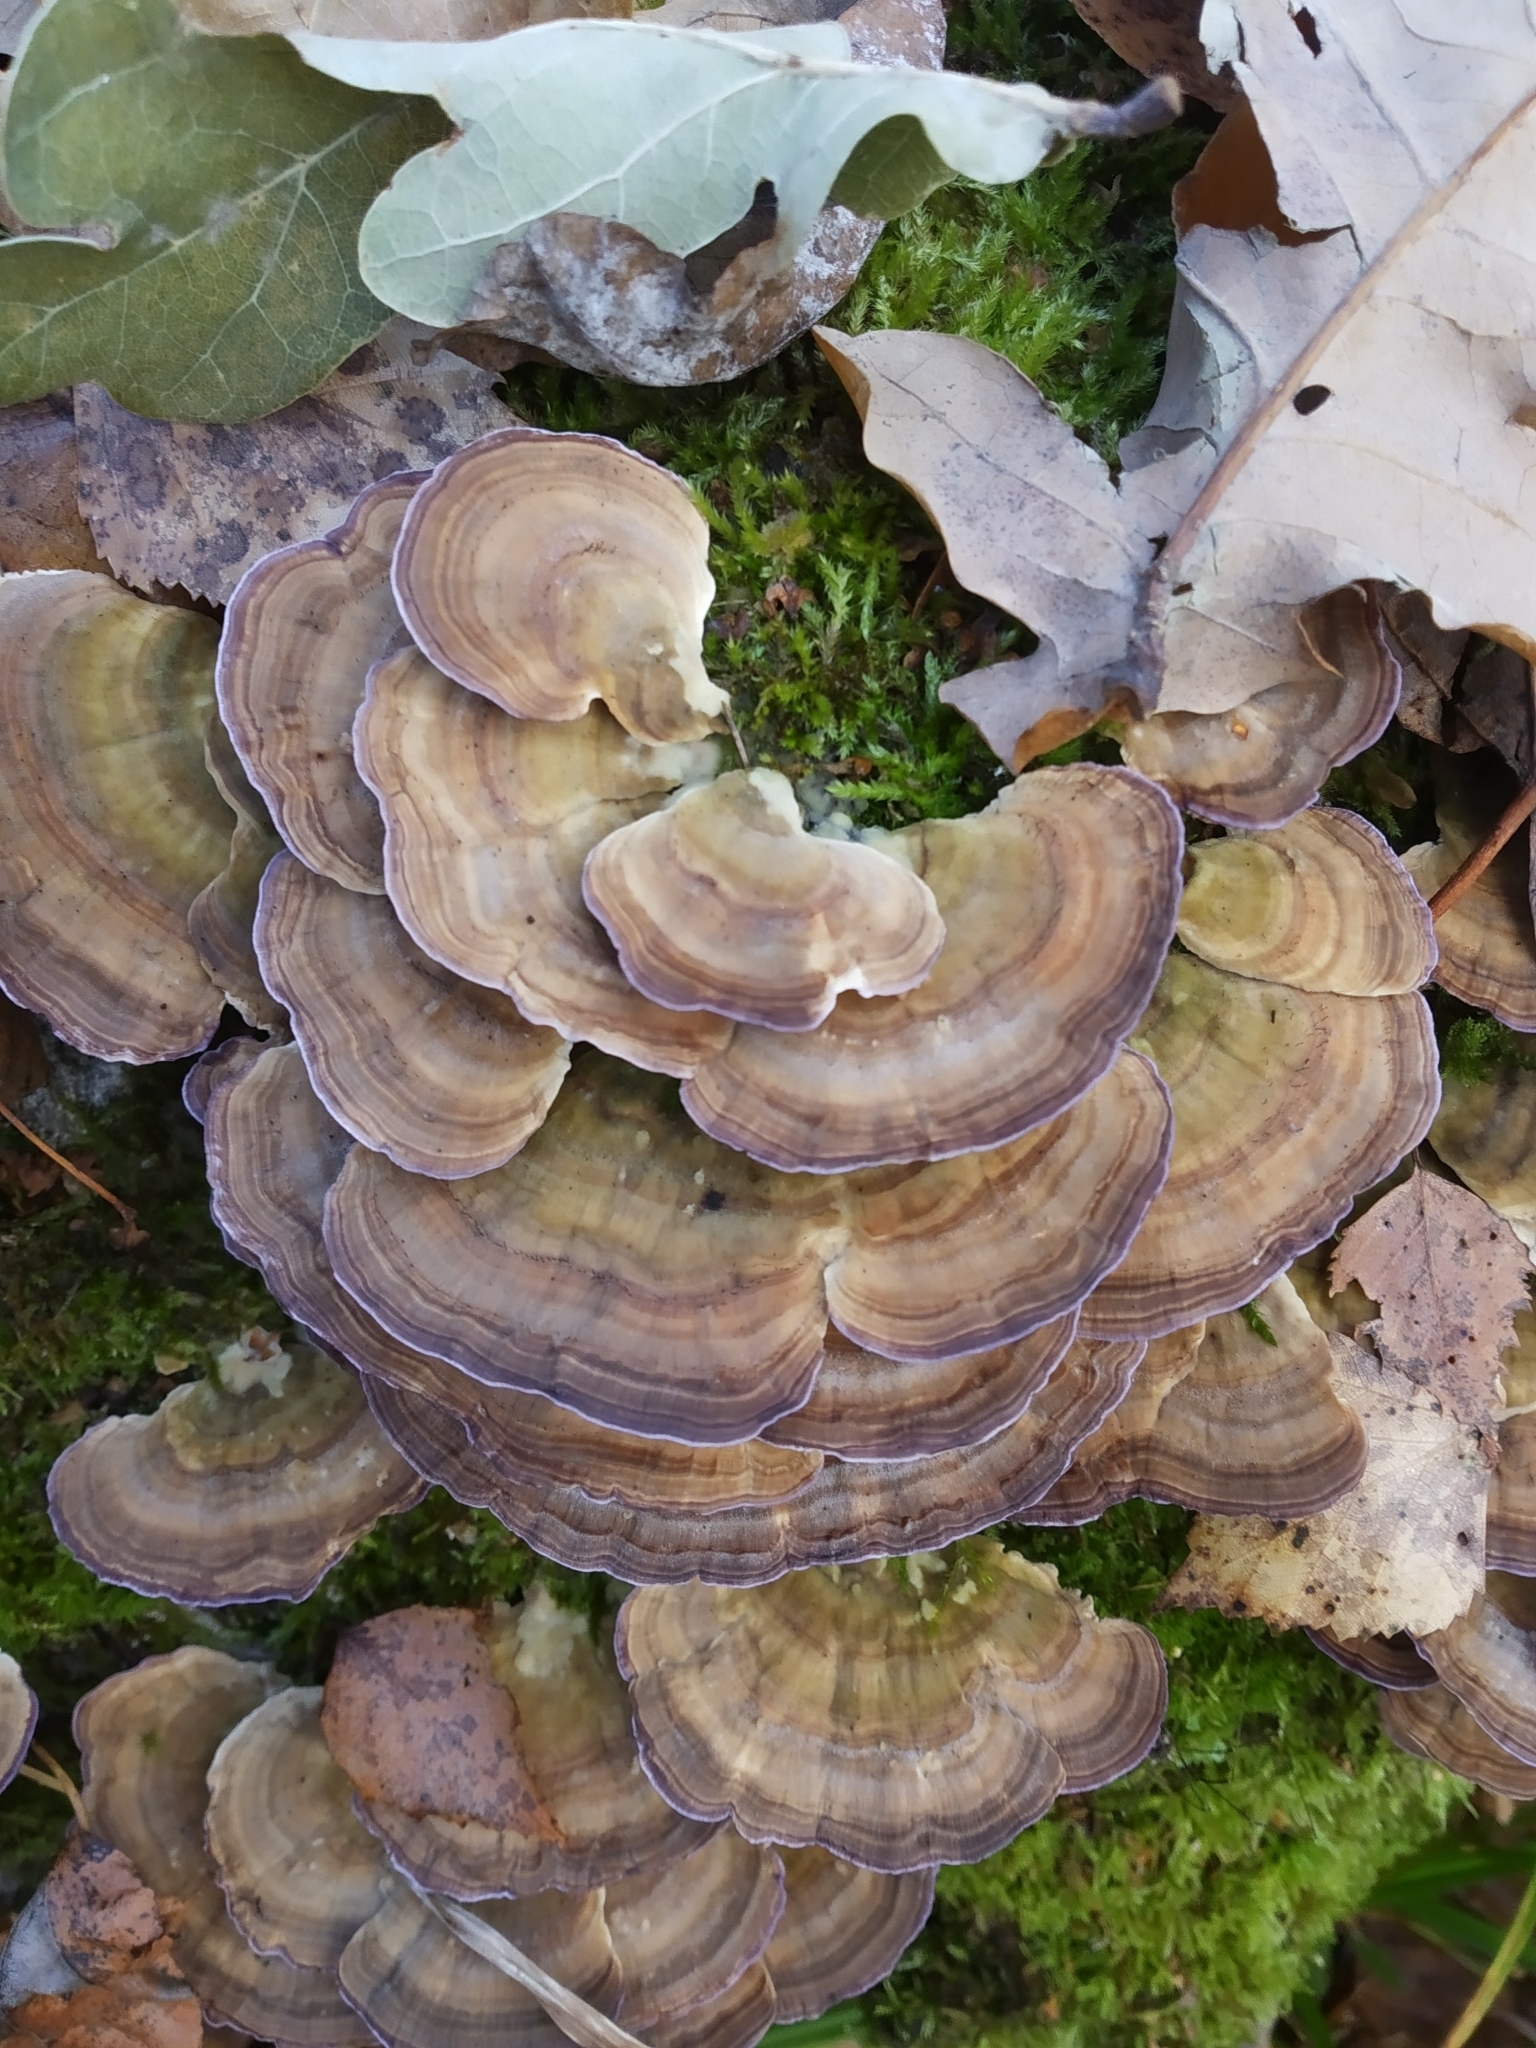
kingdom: Fungi
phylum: Basidiomycota
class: Agaricomycetes
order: Hymenochaetales
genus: Trichaptum
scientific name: Trichaptum biforme
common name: Violet-toothed polypore
